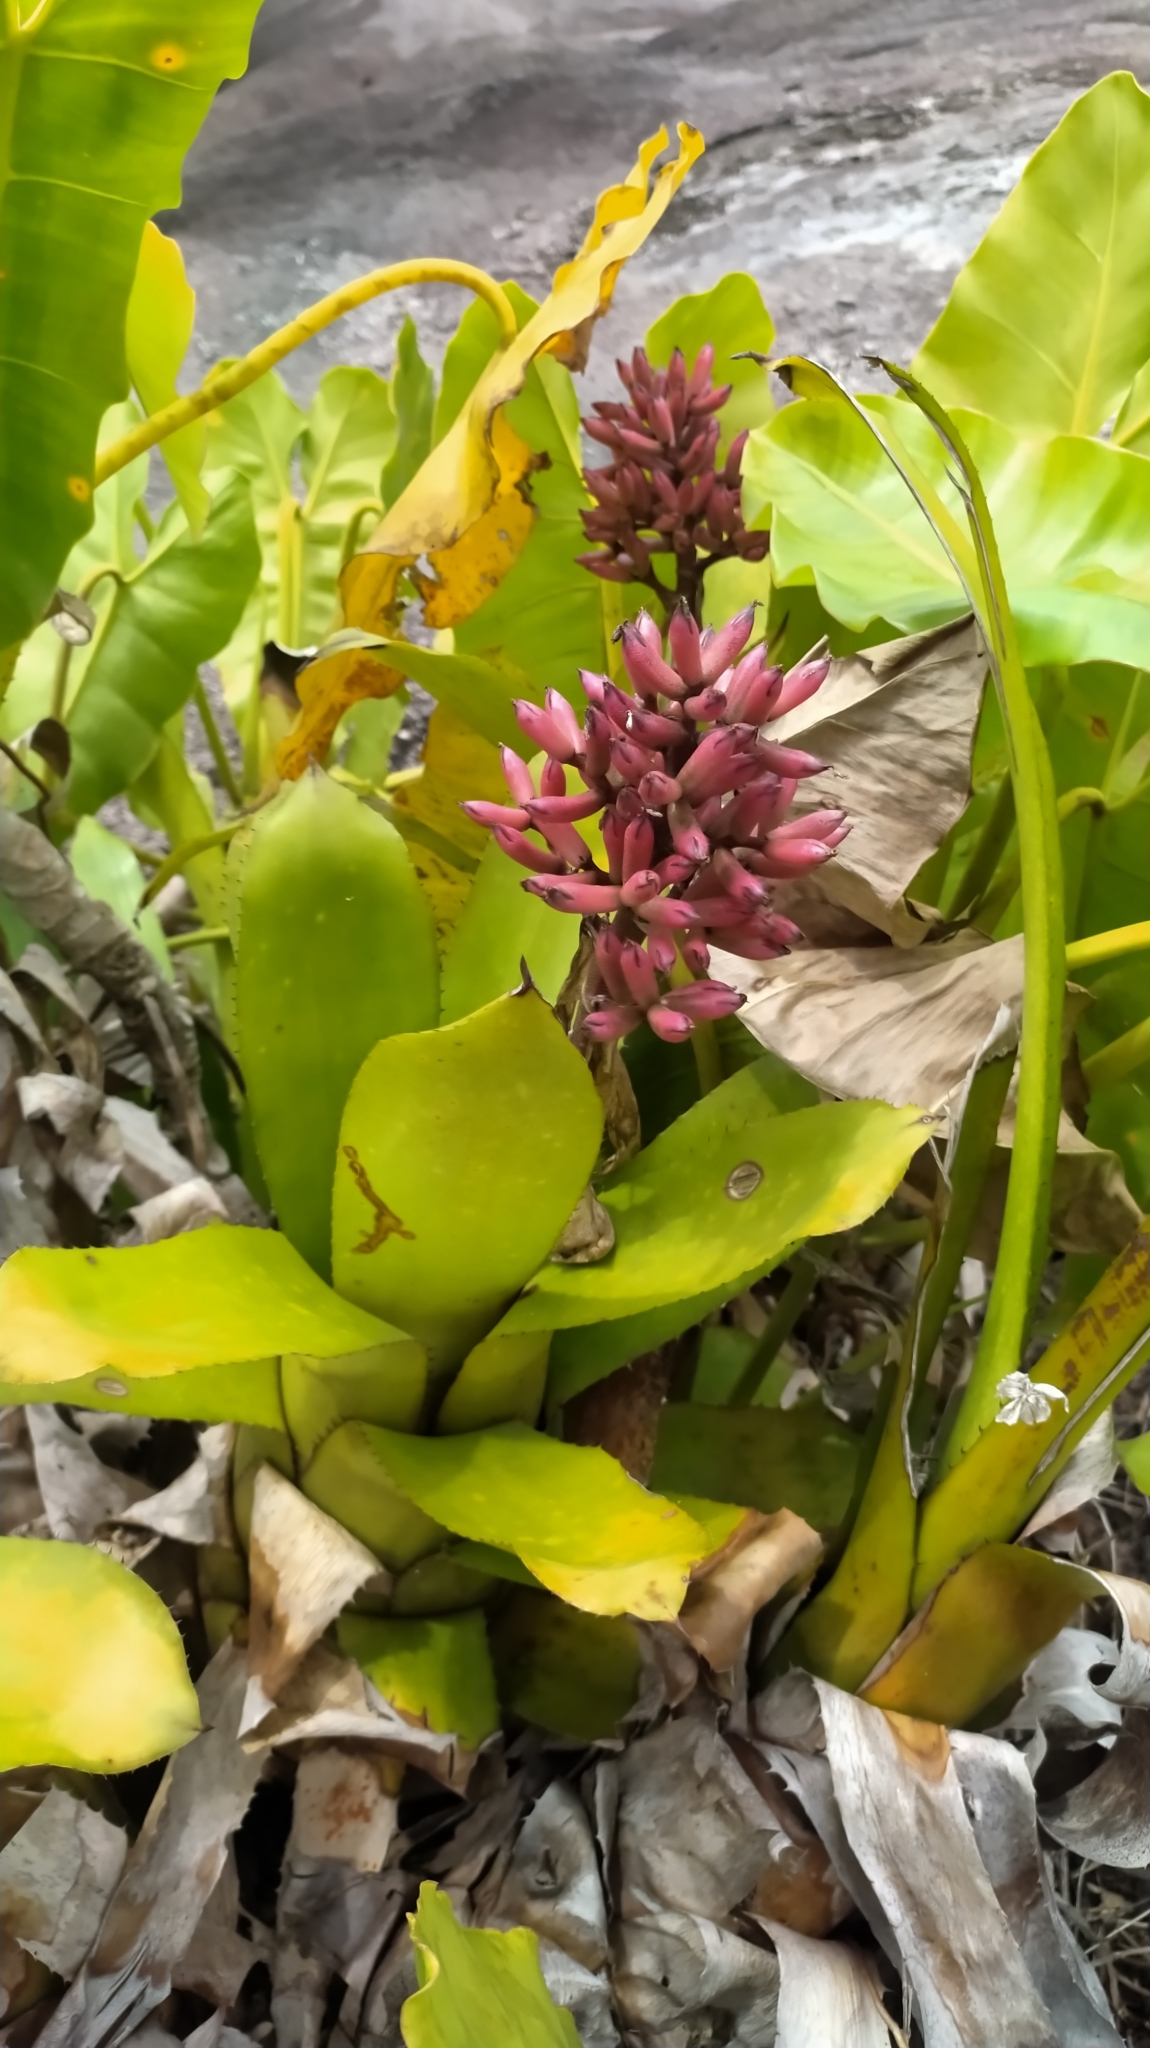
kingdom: Plantae
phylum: Tracheophyta
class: Liliopsida
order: Poales
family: Bromeliaceae
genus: Aechmea
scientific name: Aechmea melinonii
